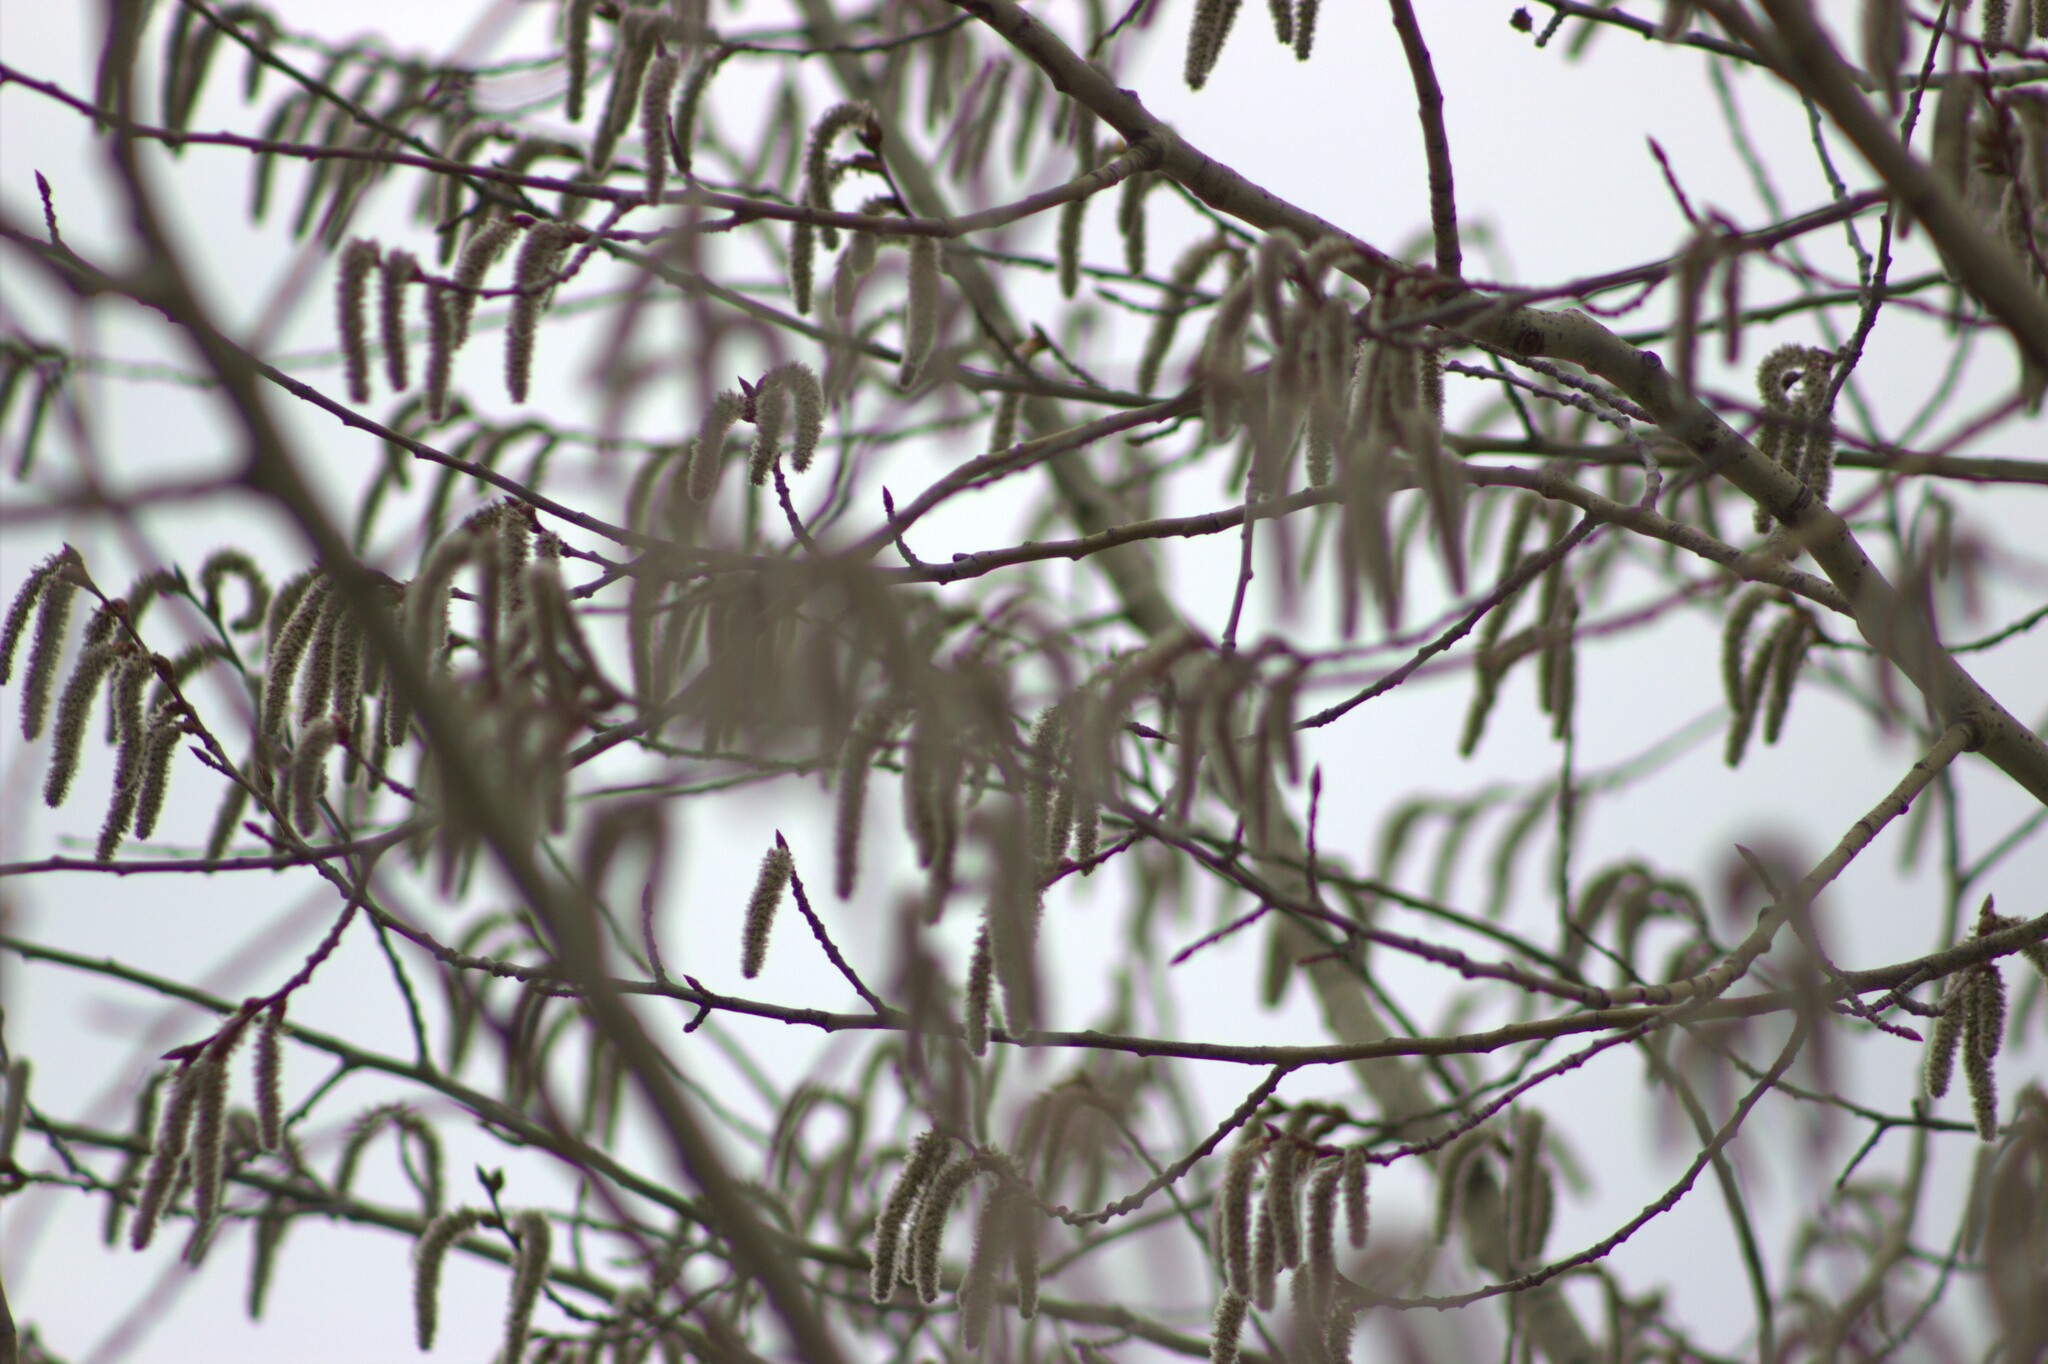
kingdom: Plantae
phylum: Tracheophyta
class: Magnoliopsida
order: Malpighiales
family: Salicaceae
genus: Populus
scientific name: Populus tremula
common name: European aspen
